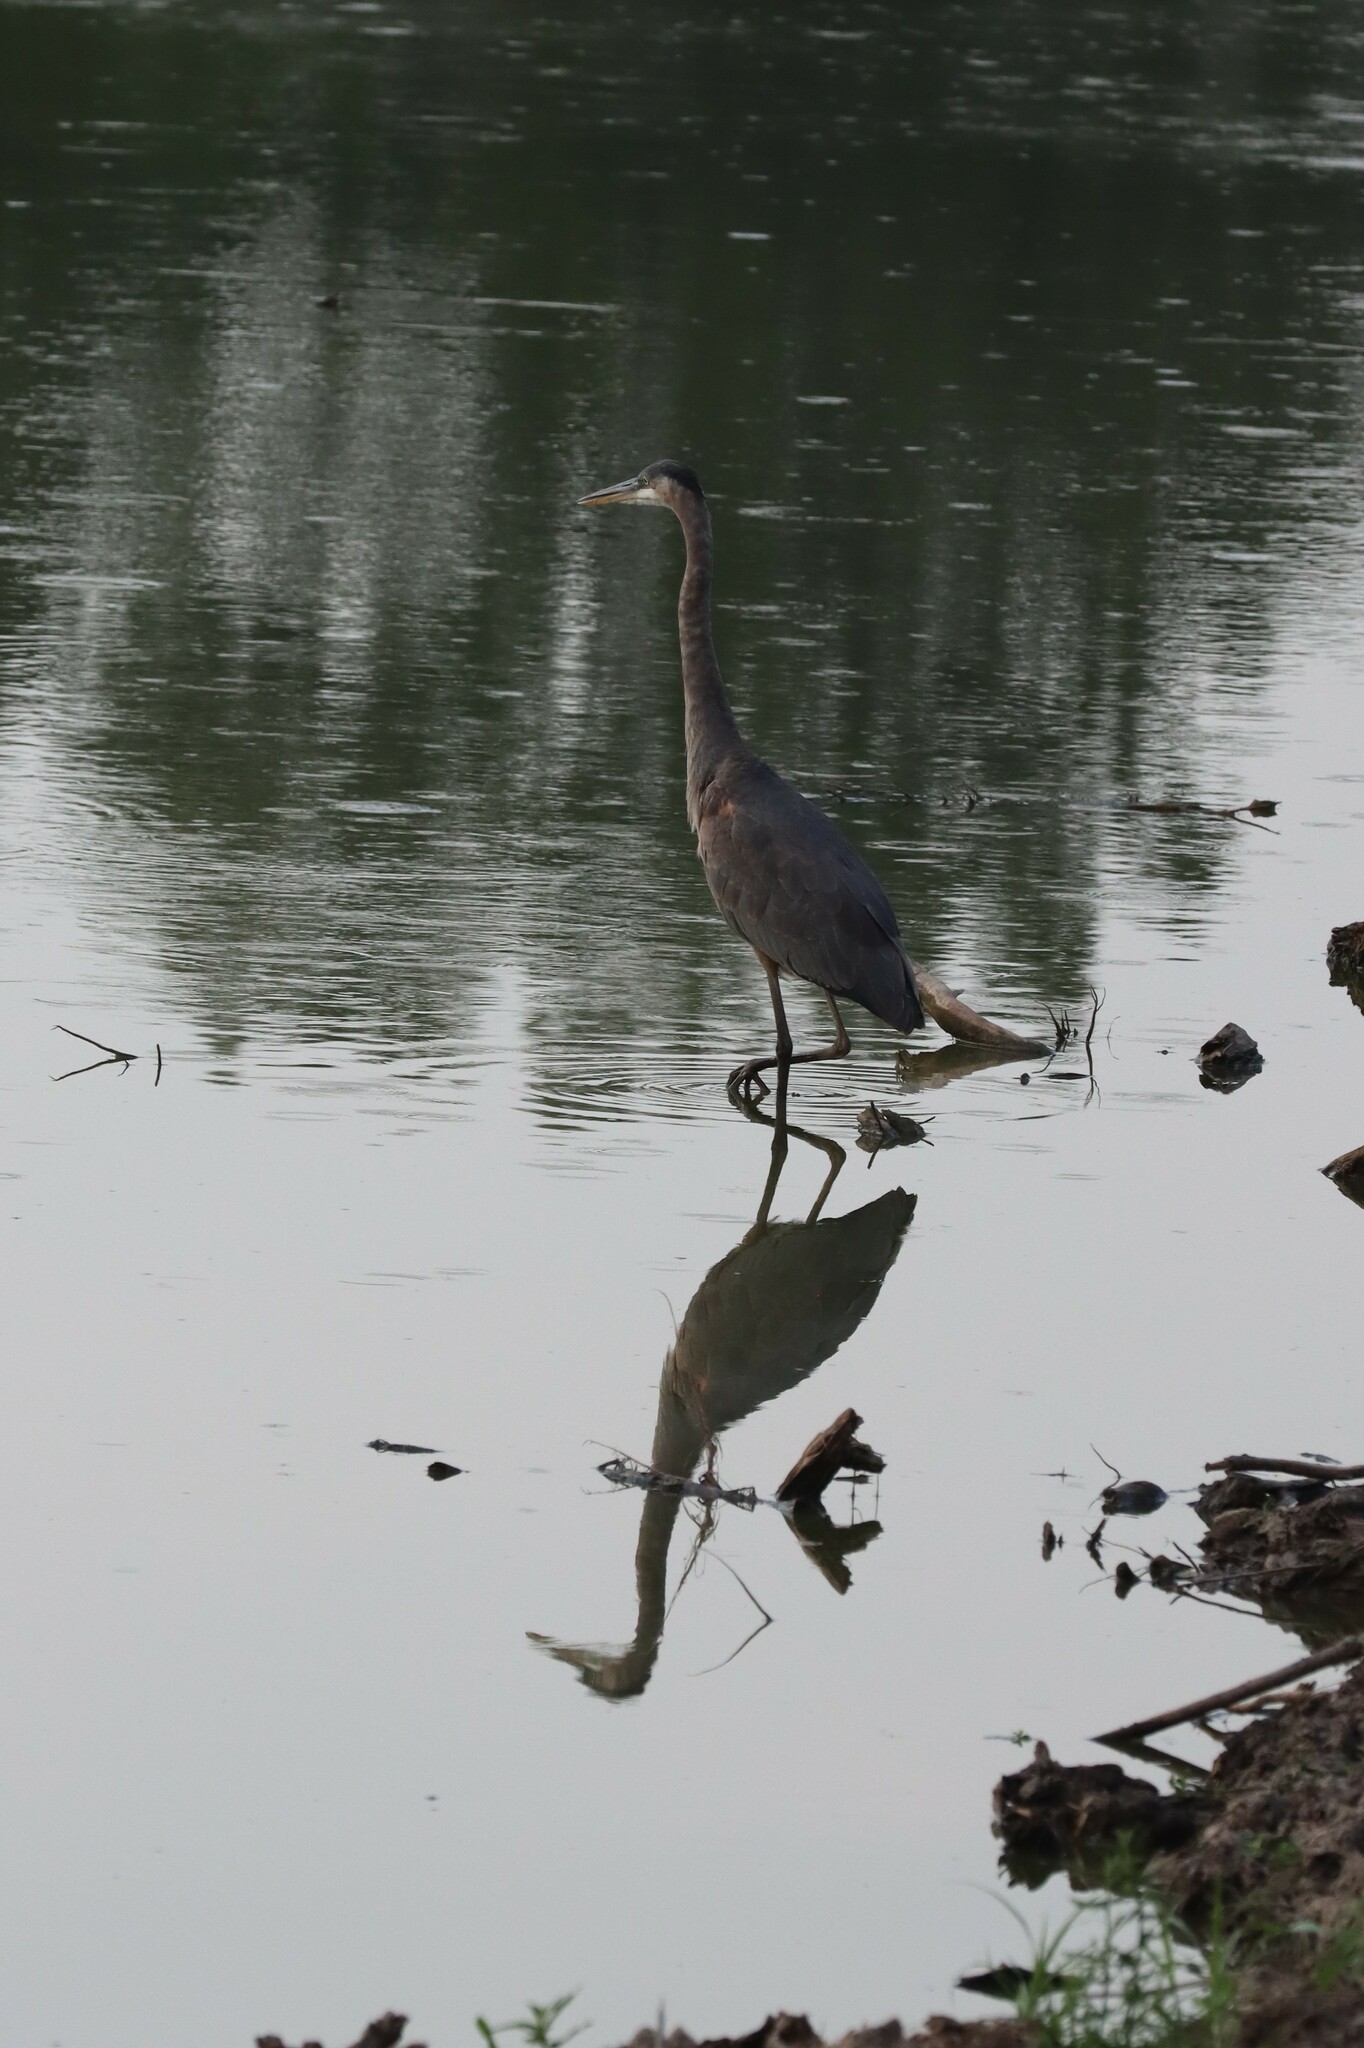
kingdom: Animalia
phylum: Chordata
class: Aves
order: Pelecaniformes
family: Ardeidae
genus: Ardea
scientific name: Ardea herodias
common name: Great blue heron
